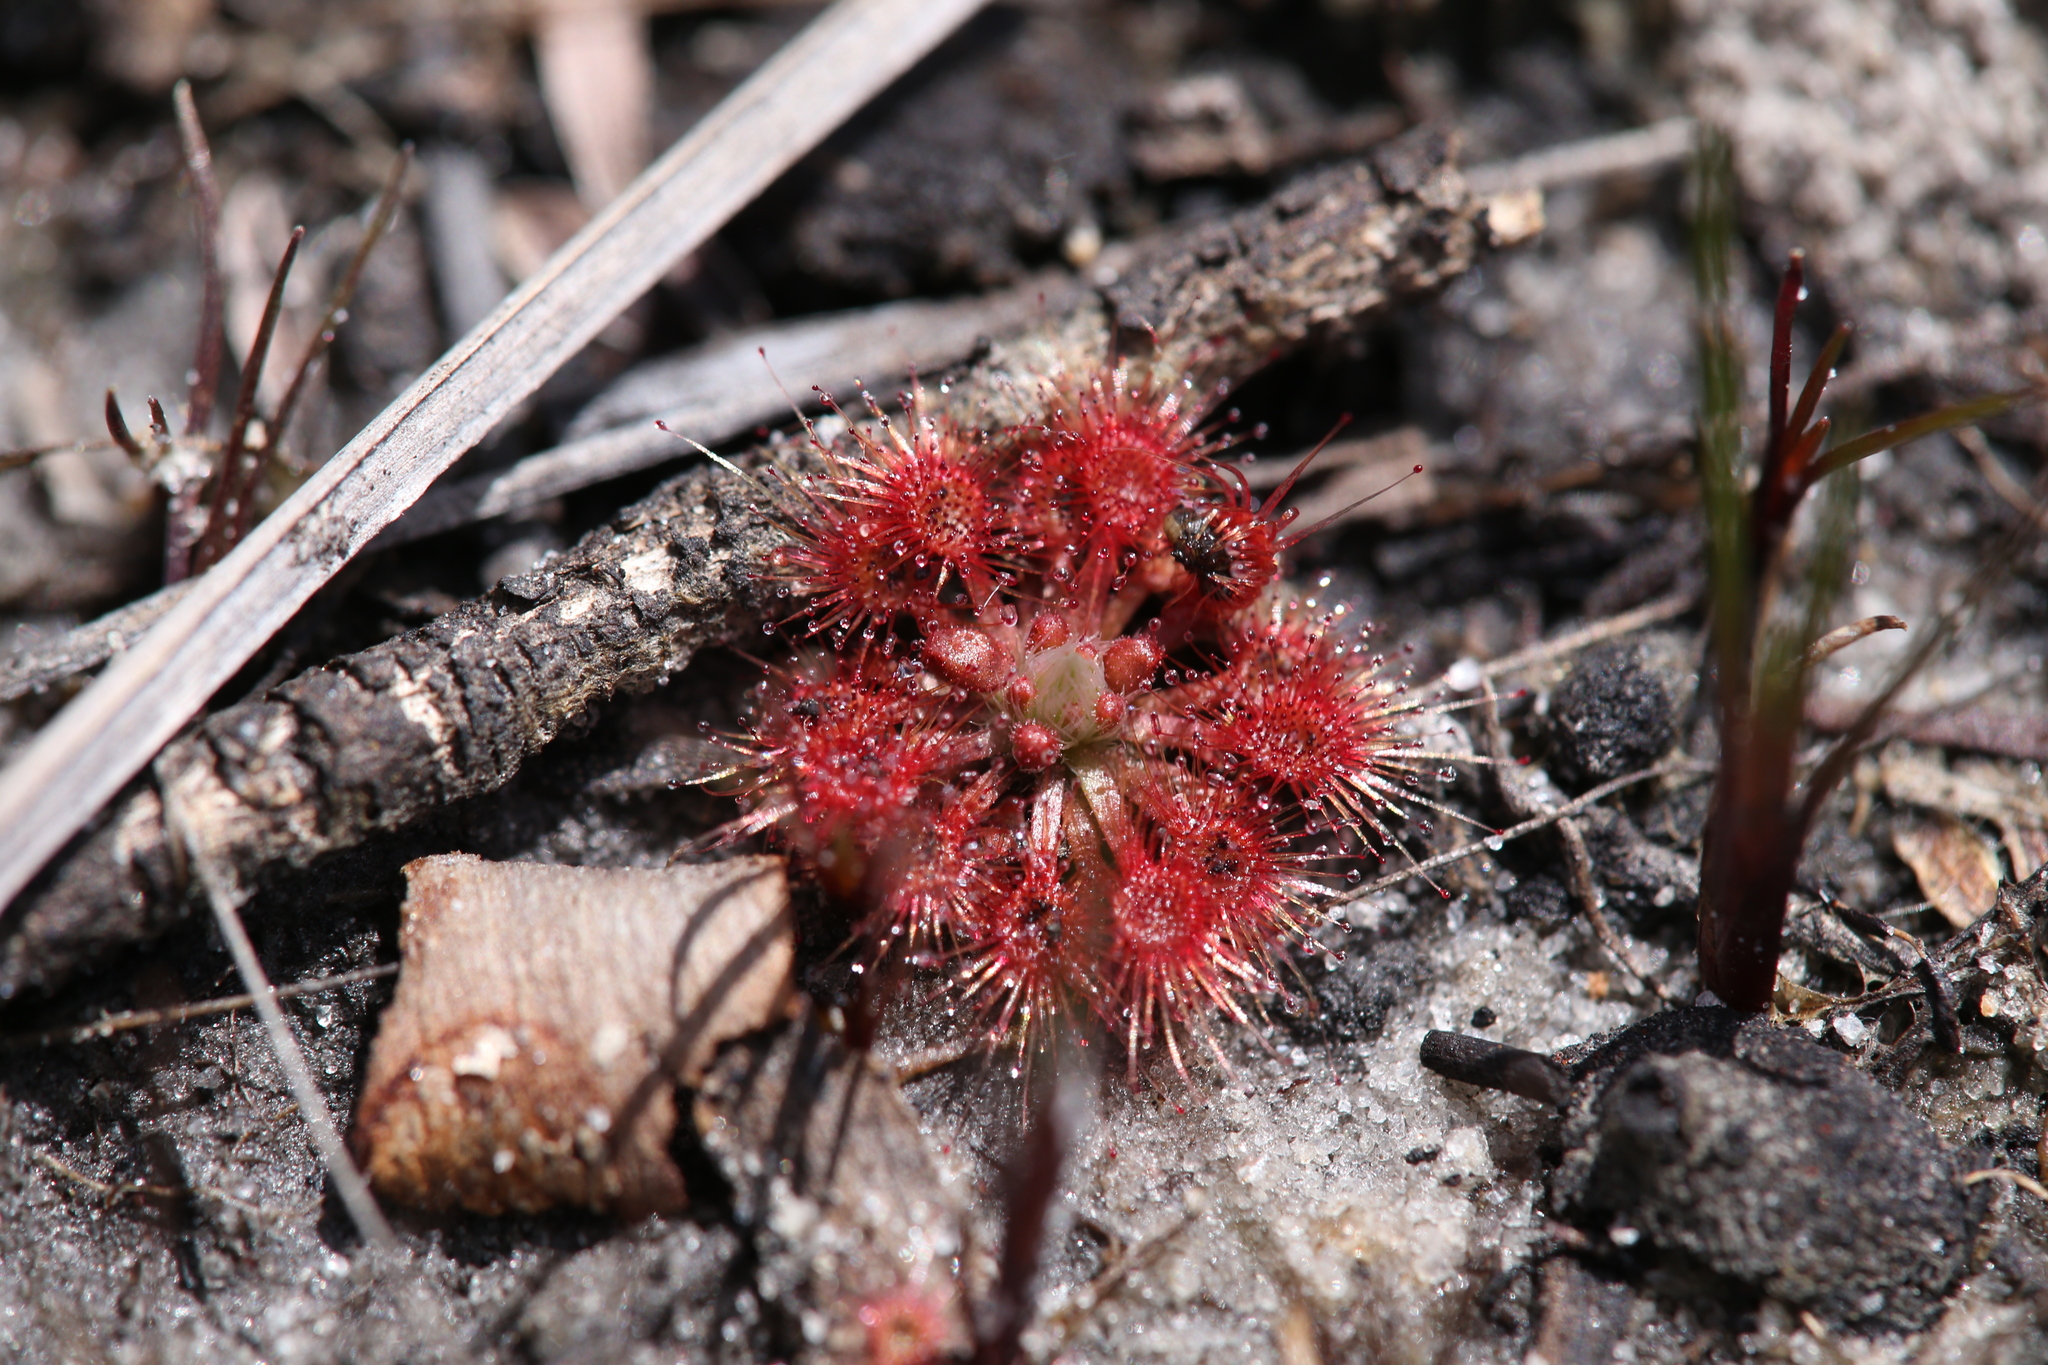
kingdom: Plantae
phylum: Tracheophyta
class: Magnoliopsida
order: Caryophyllales
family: Droseraceae
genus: Drosera
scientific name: Drosera nitidula
